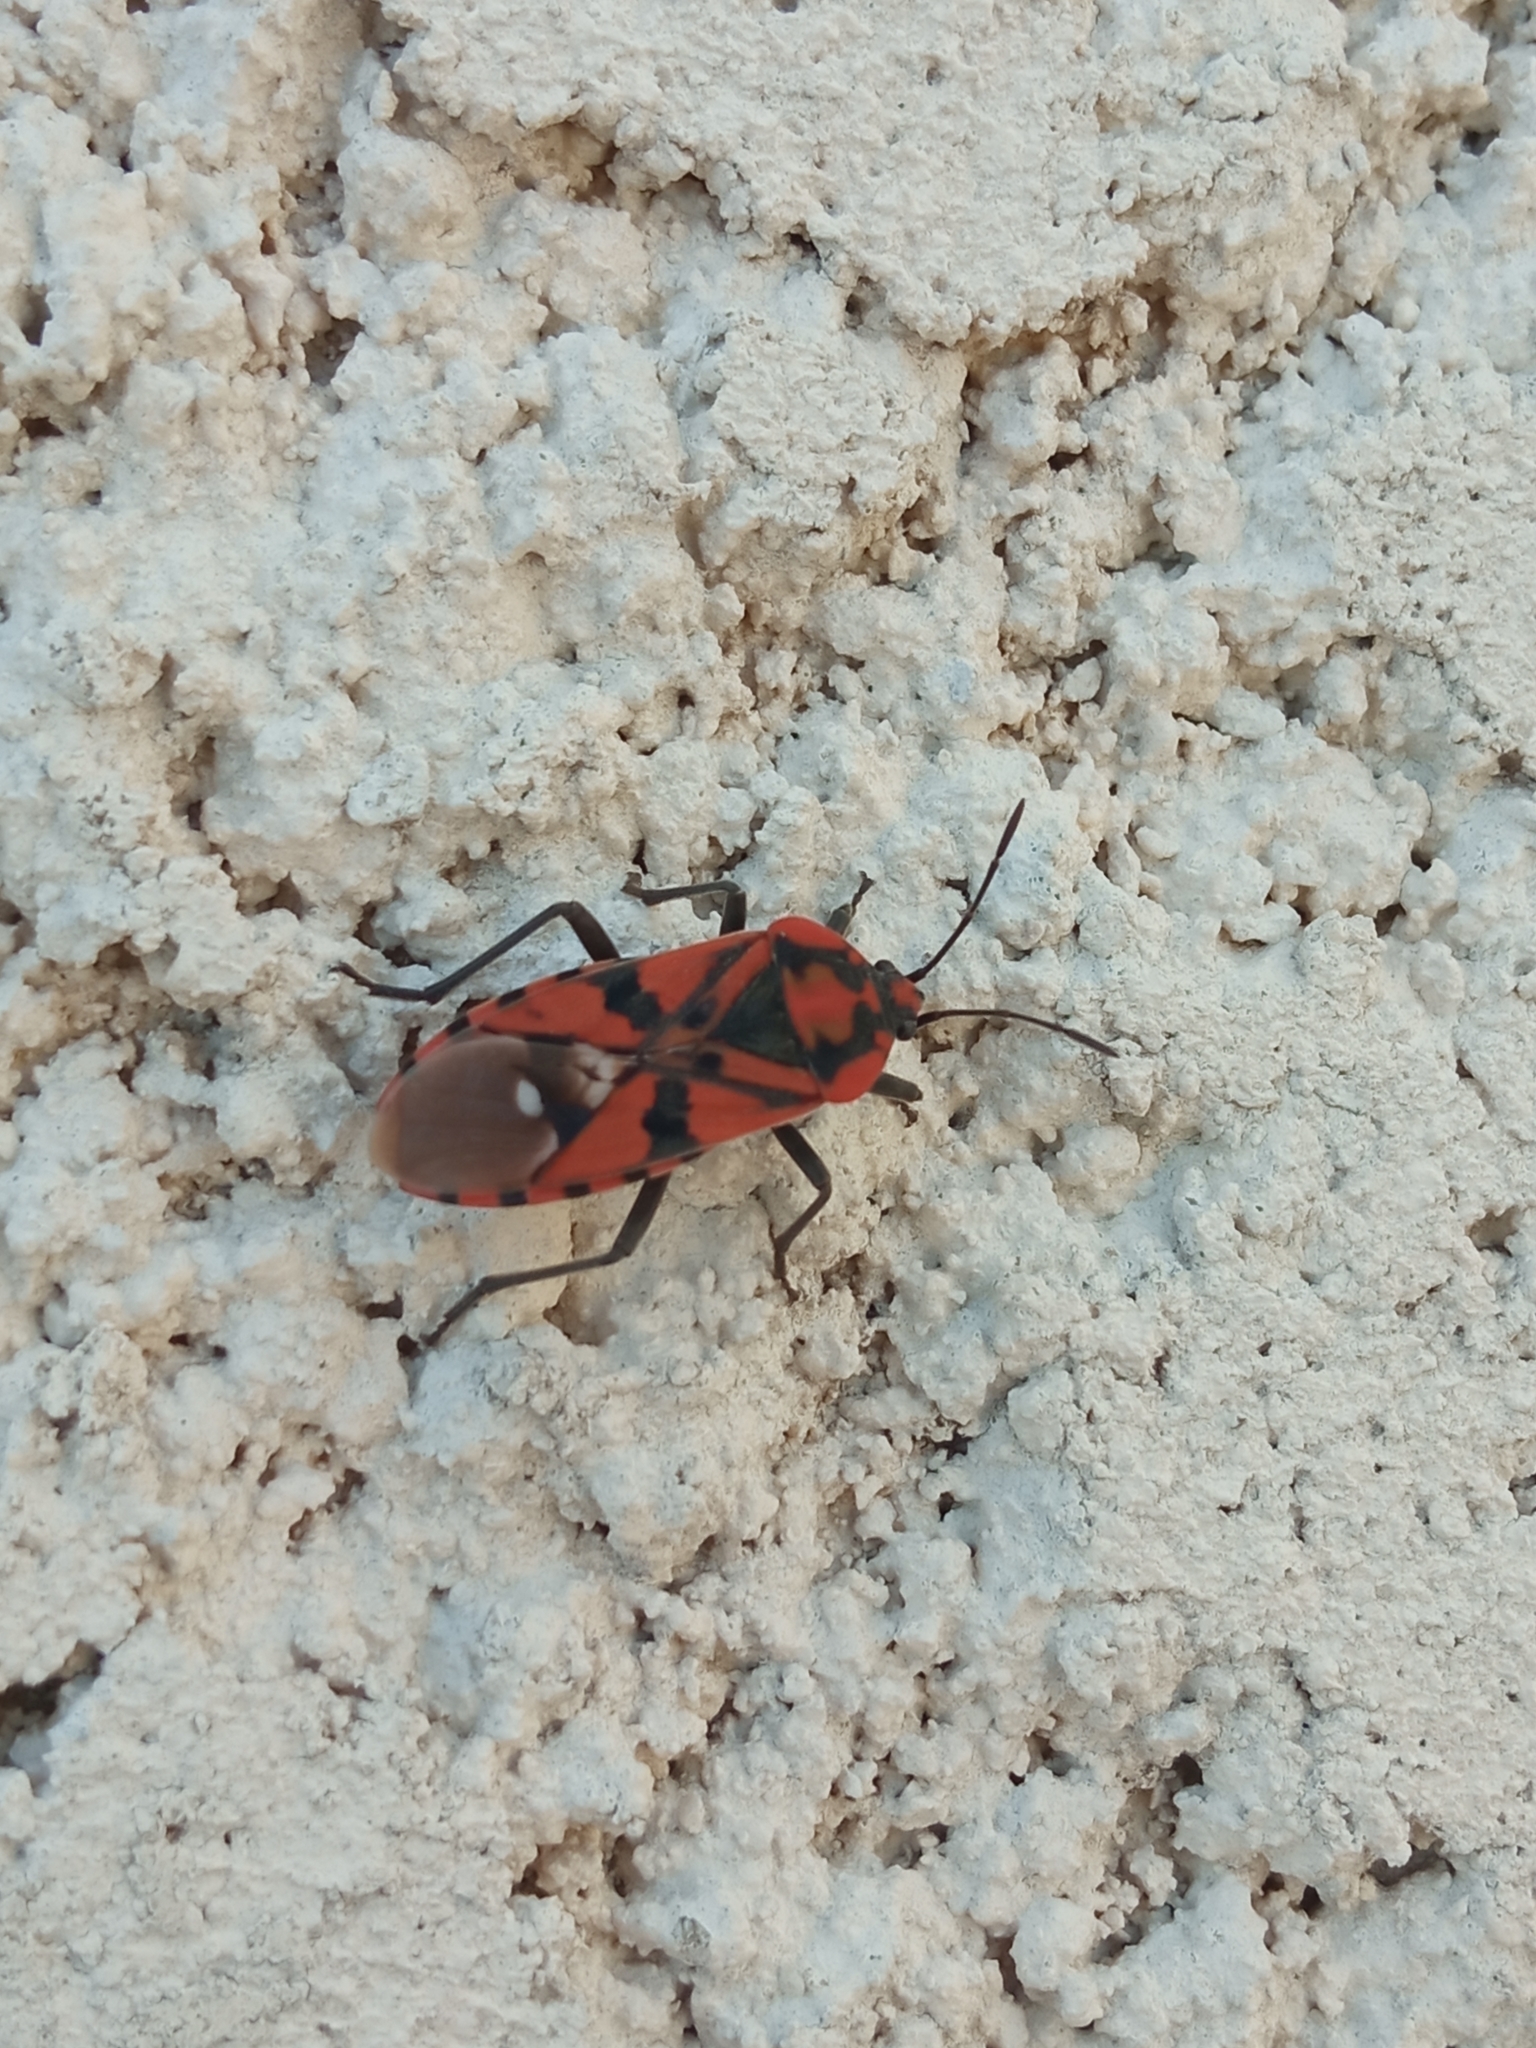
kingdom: Animalia
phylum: Arthropoda
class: Insecta
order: Hemiptera
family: Lygaeidae
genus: Spilostethus
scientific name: Spilostethus pandurus
